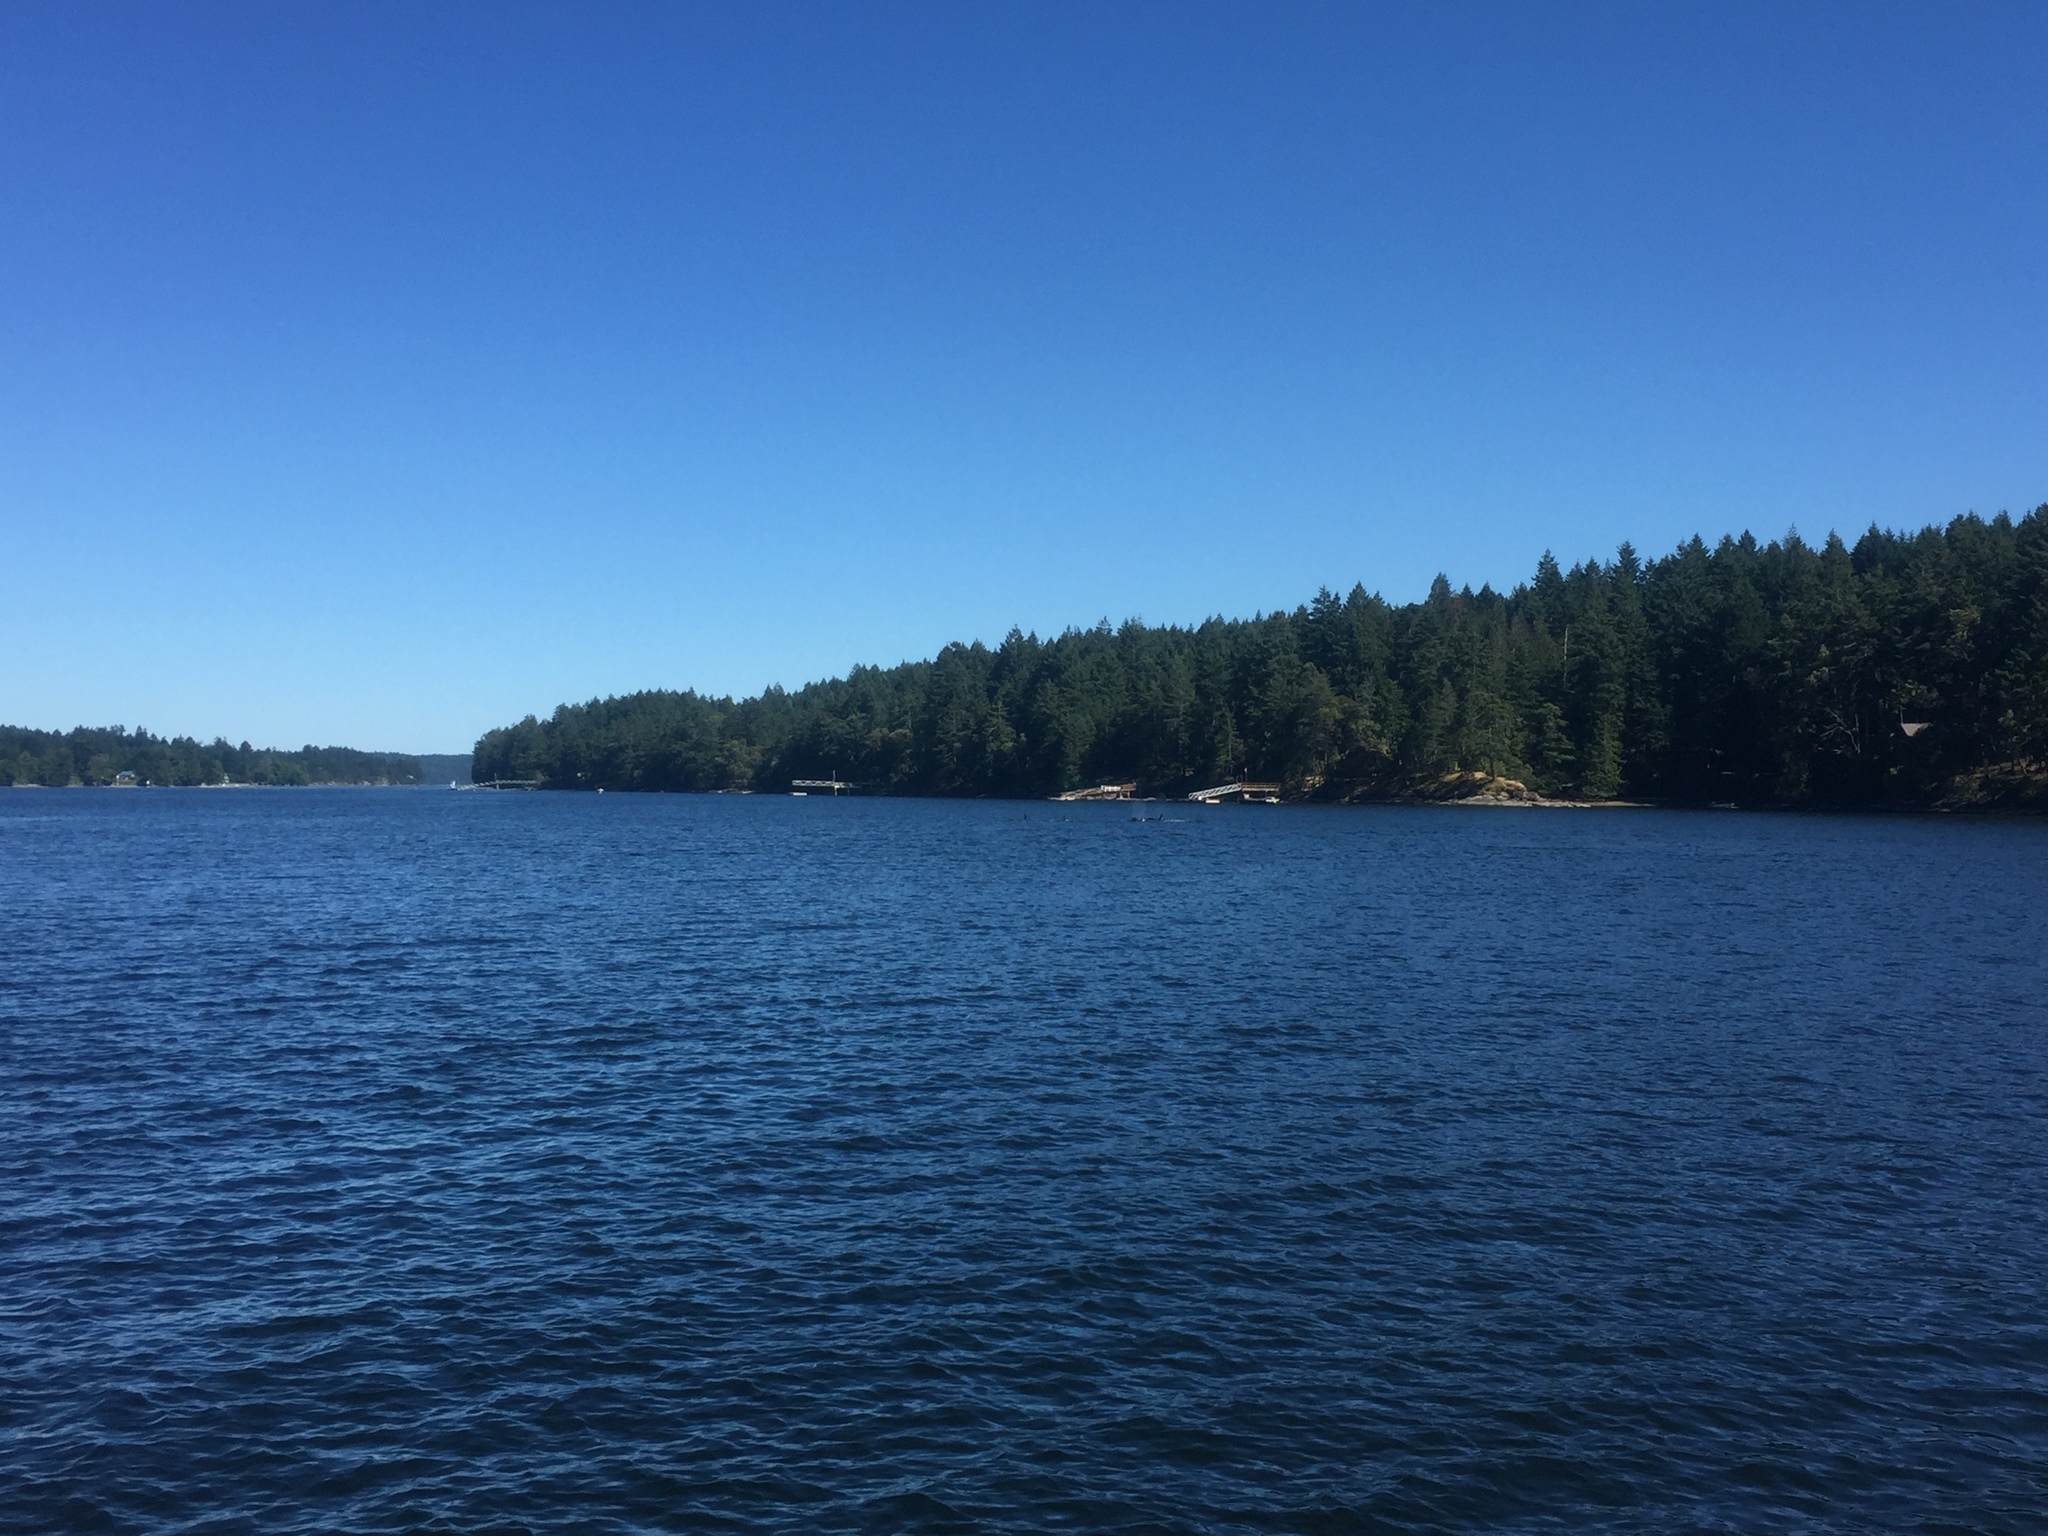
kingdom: Animalia
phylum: Chordata
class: Mammalia
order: Cetacea
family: Delphinidae
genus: Orcinus
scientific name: Orcinus orca
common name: Killer whale
